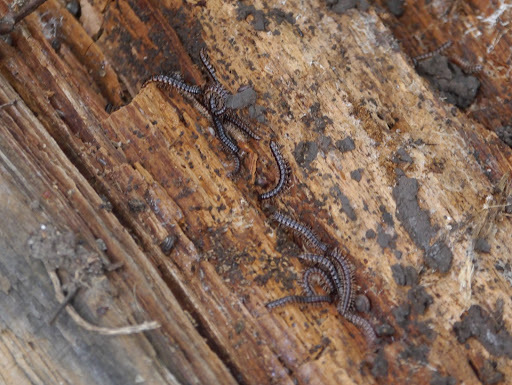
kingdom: Animalia
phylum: Arthropoda
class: Diplopoda
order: Polydesmida
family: Paradoxosomatidae
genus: Oxidus
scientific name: Oxidus gracilis
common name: Greenhouse millipede
